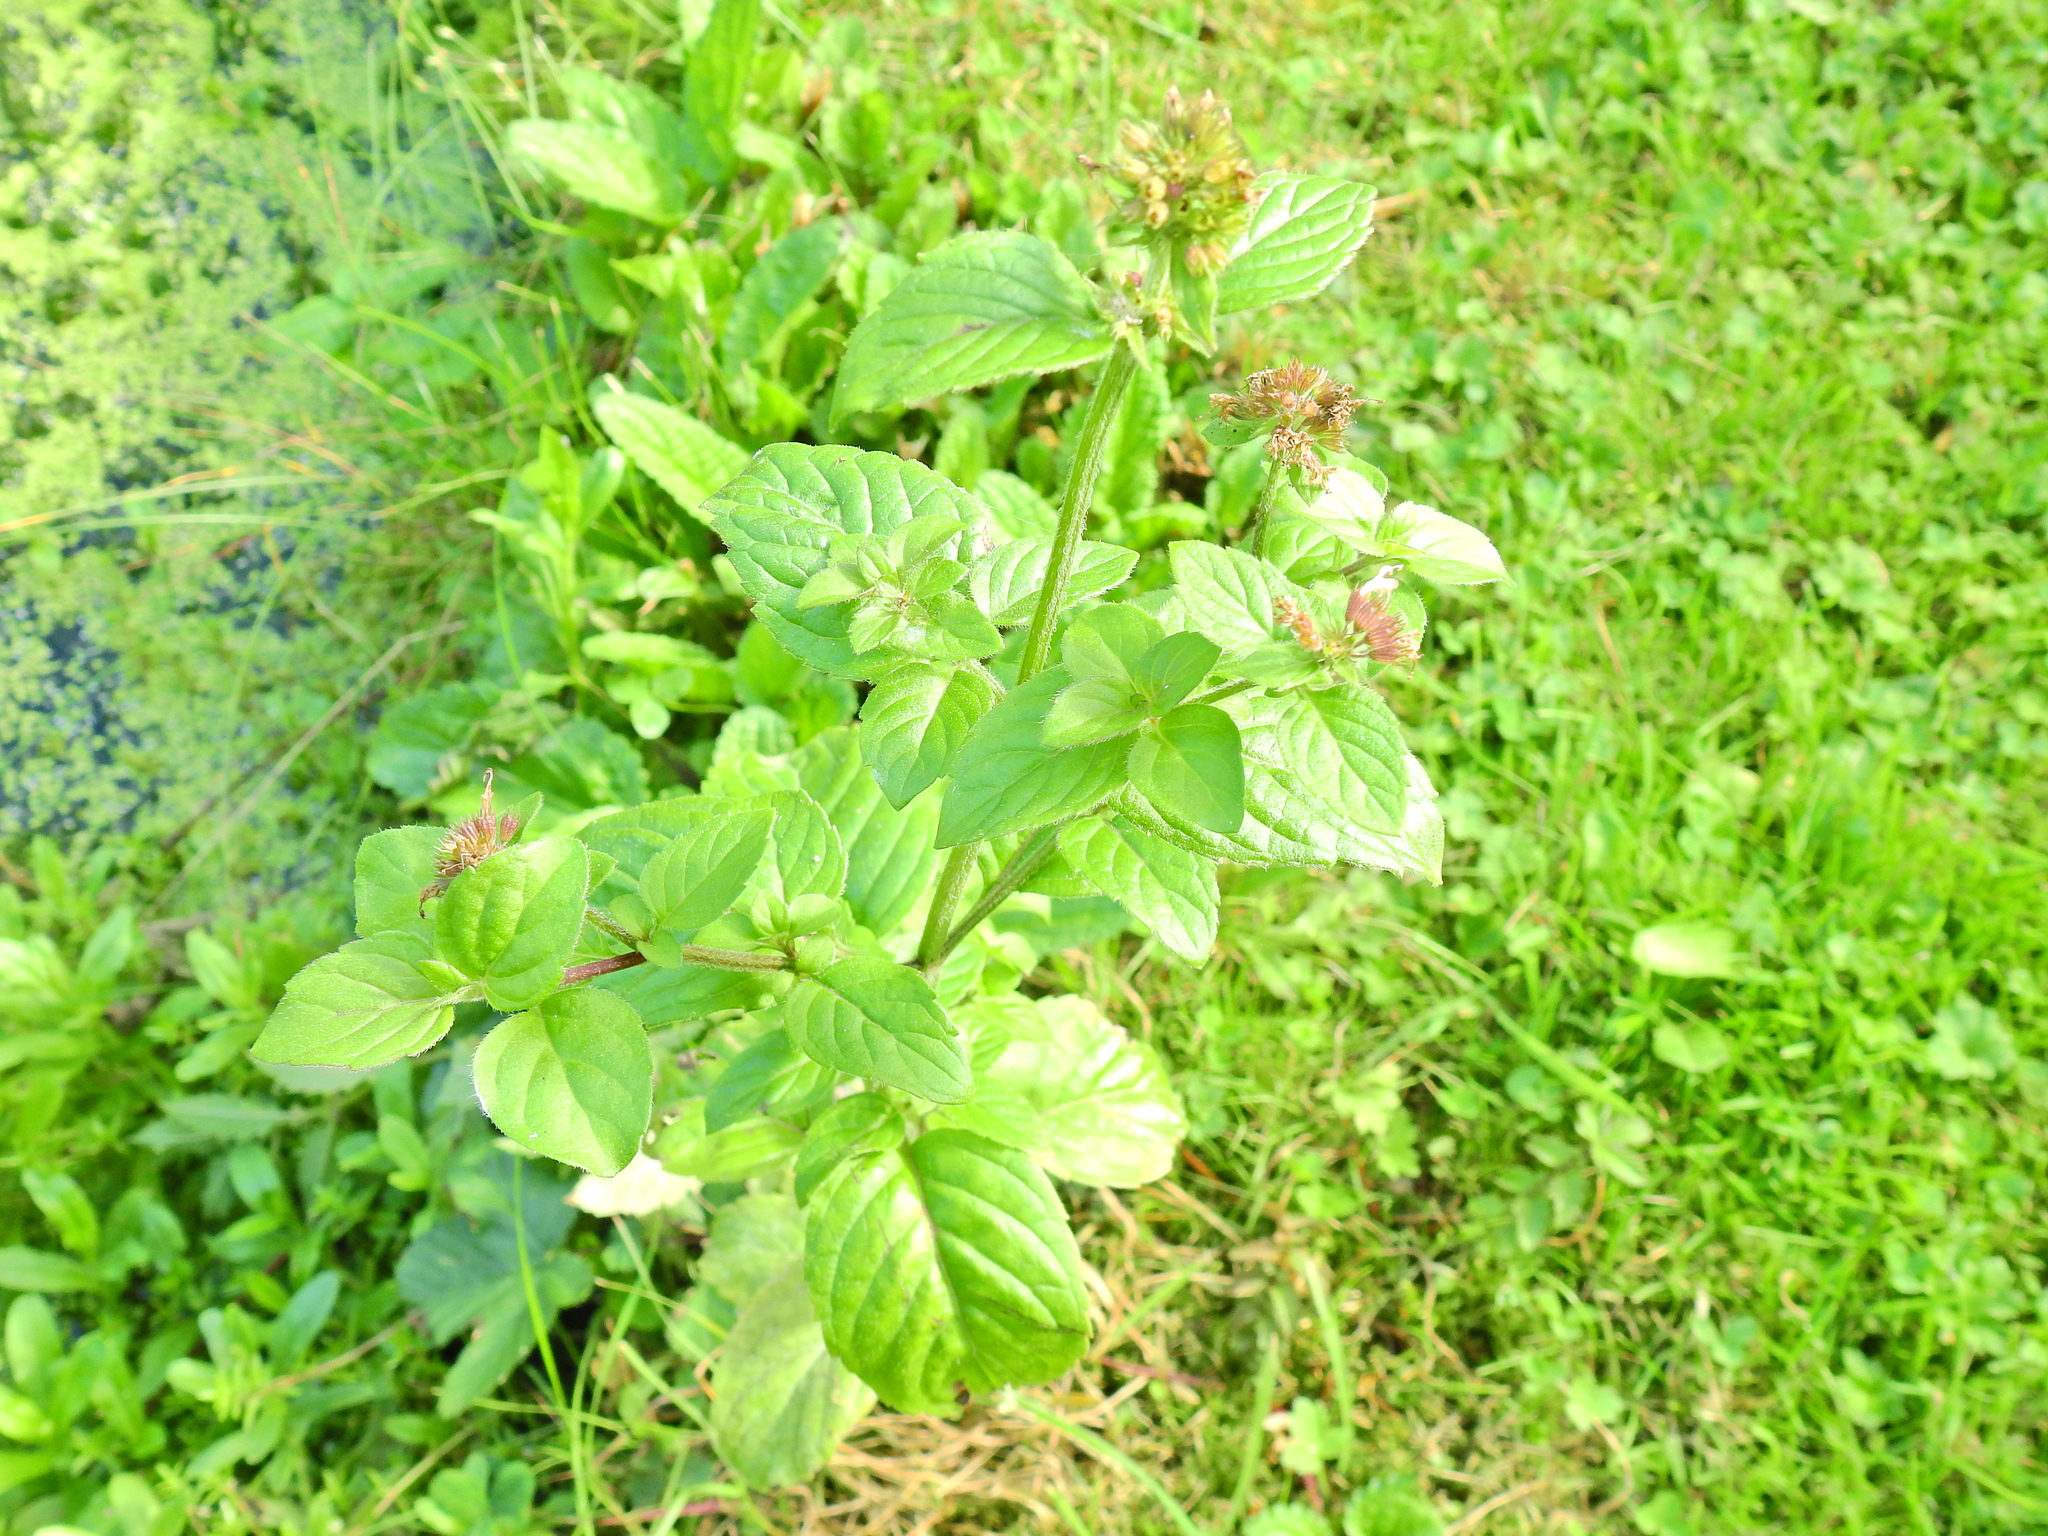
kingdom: Plantae
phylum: Tracheophyta
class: Magnoliopsida
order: Lamiales
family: Lamiaceae
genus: Mentha
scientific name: Mentha aquatica
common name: Water mint
